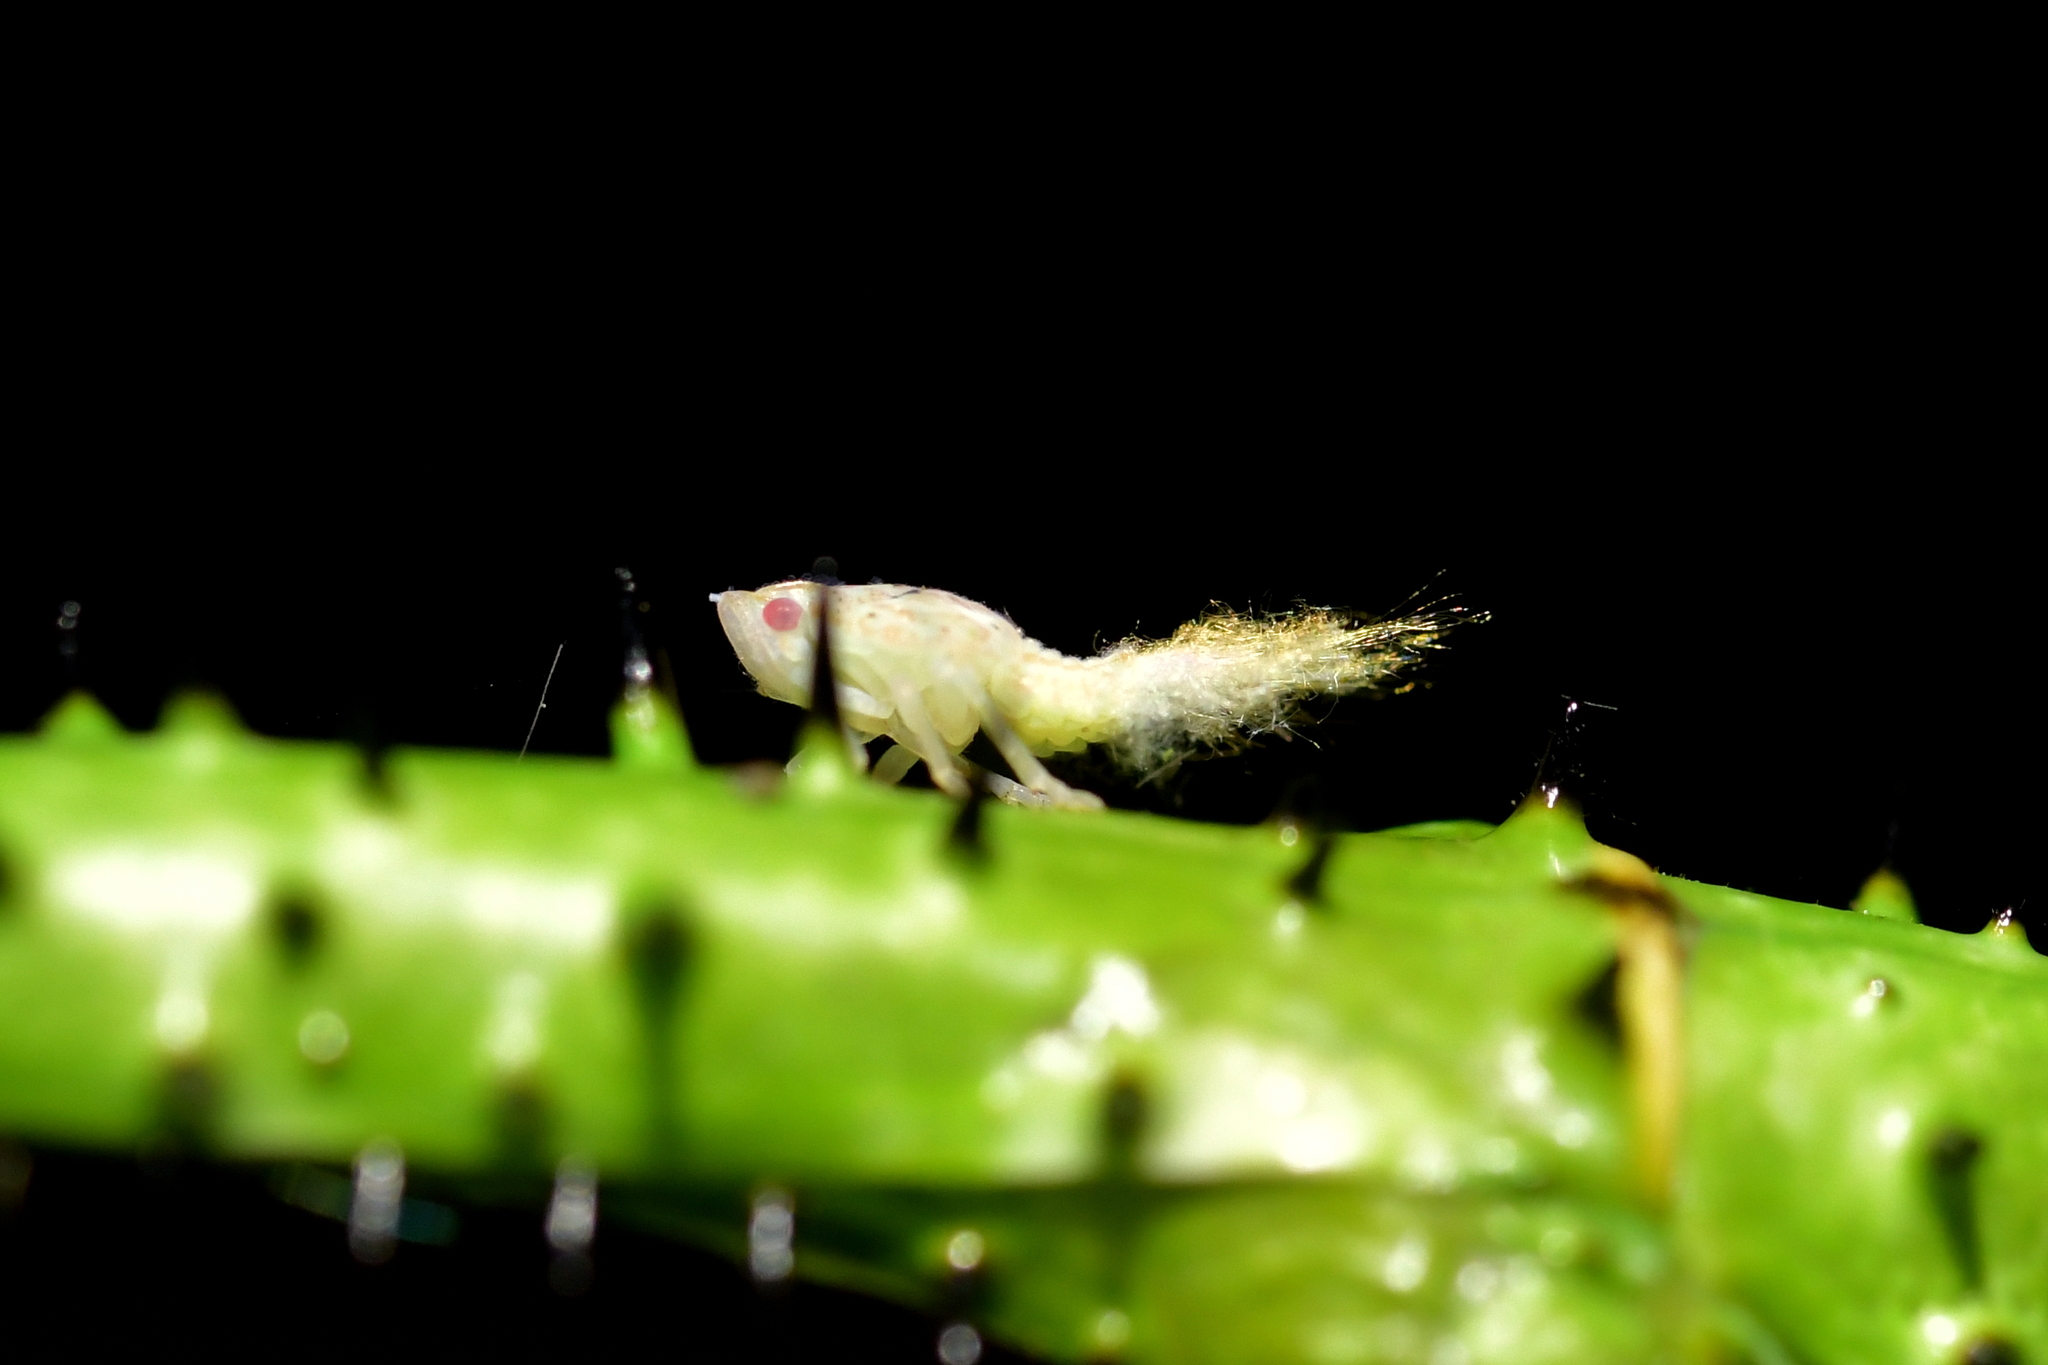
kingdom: Animalia
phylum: Arthropoda
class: Insecta
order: Hemiptera
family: Ricaniidae
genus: Scolypopa
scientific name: Scolypopa australis
